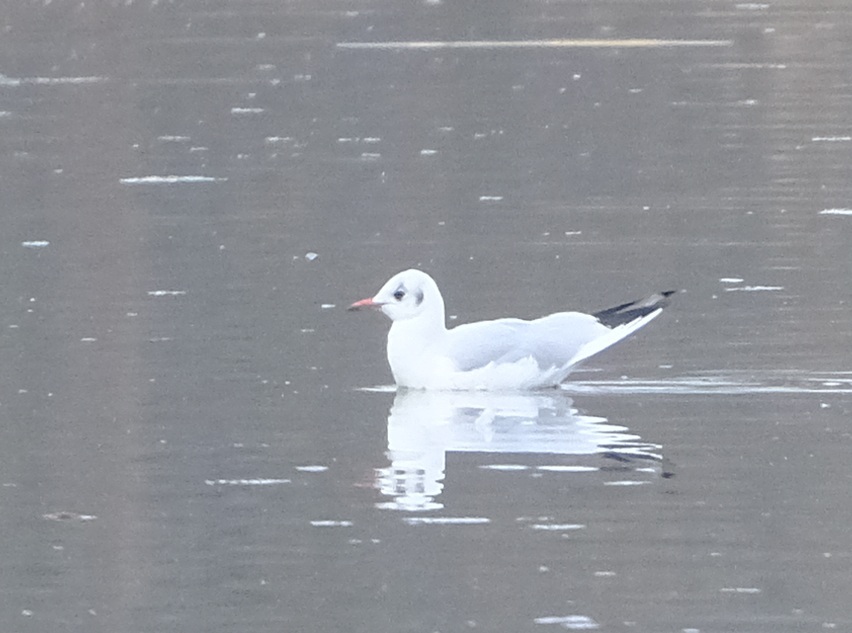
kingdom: Animalia
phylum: Chordata
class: Aves
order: Charadriiformes
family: Laridae
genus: Chroicocephalus
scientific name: Chroicocephalus ridibundus
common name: Black-headed gull
